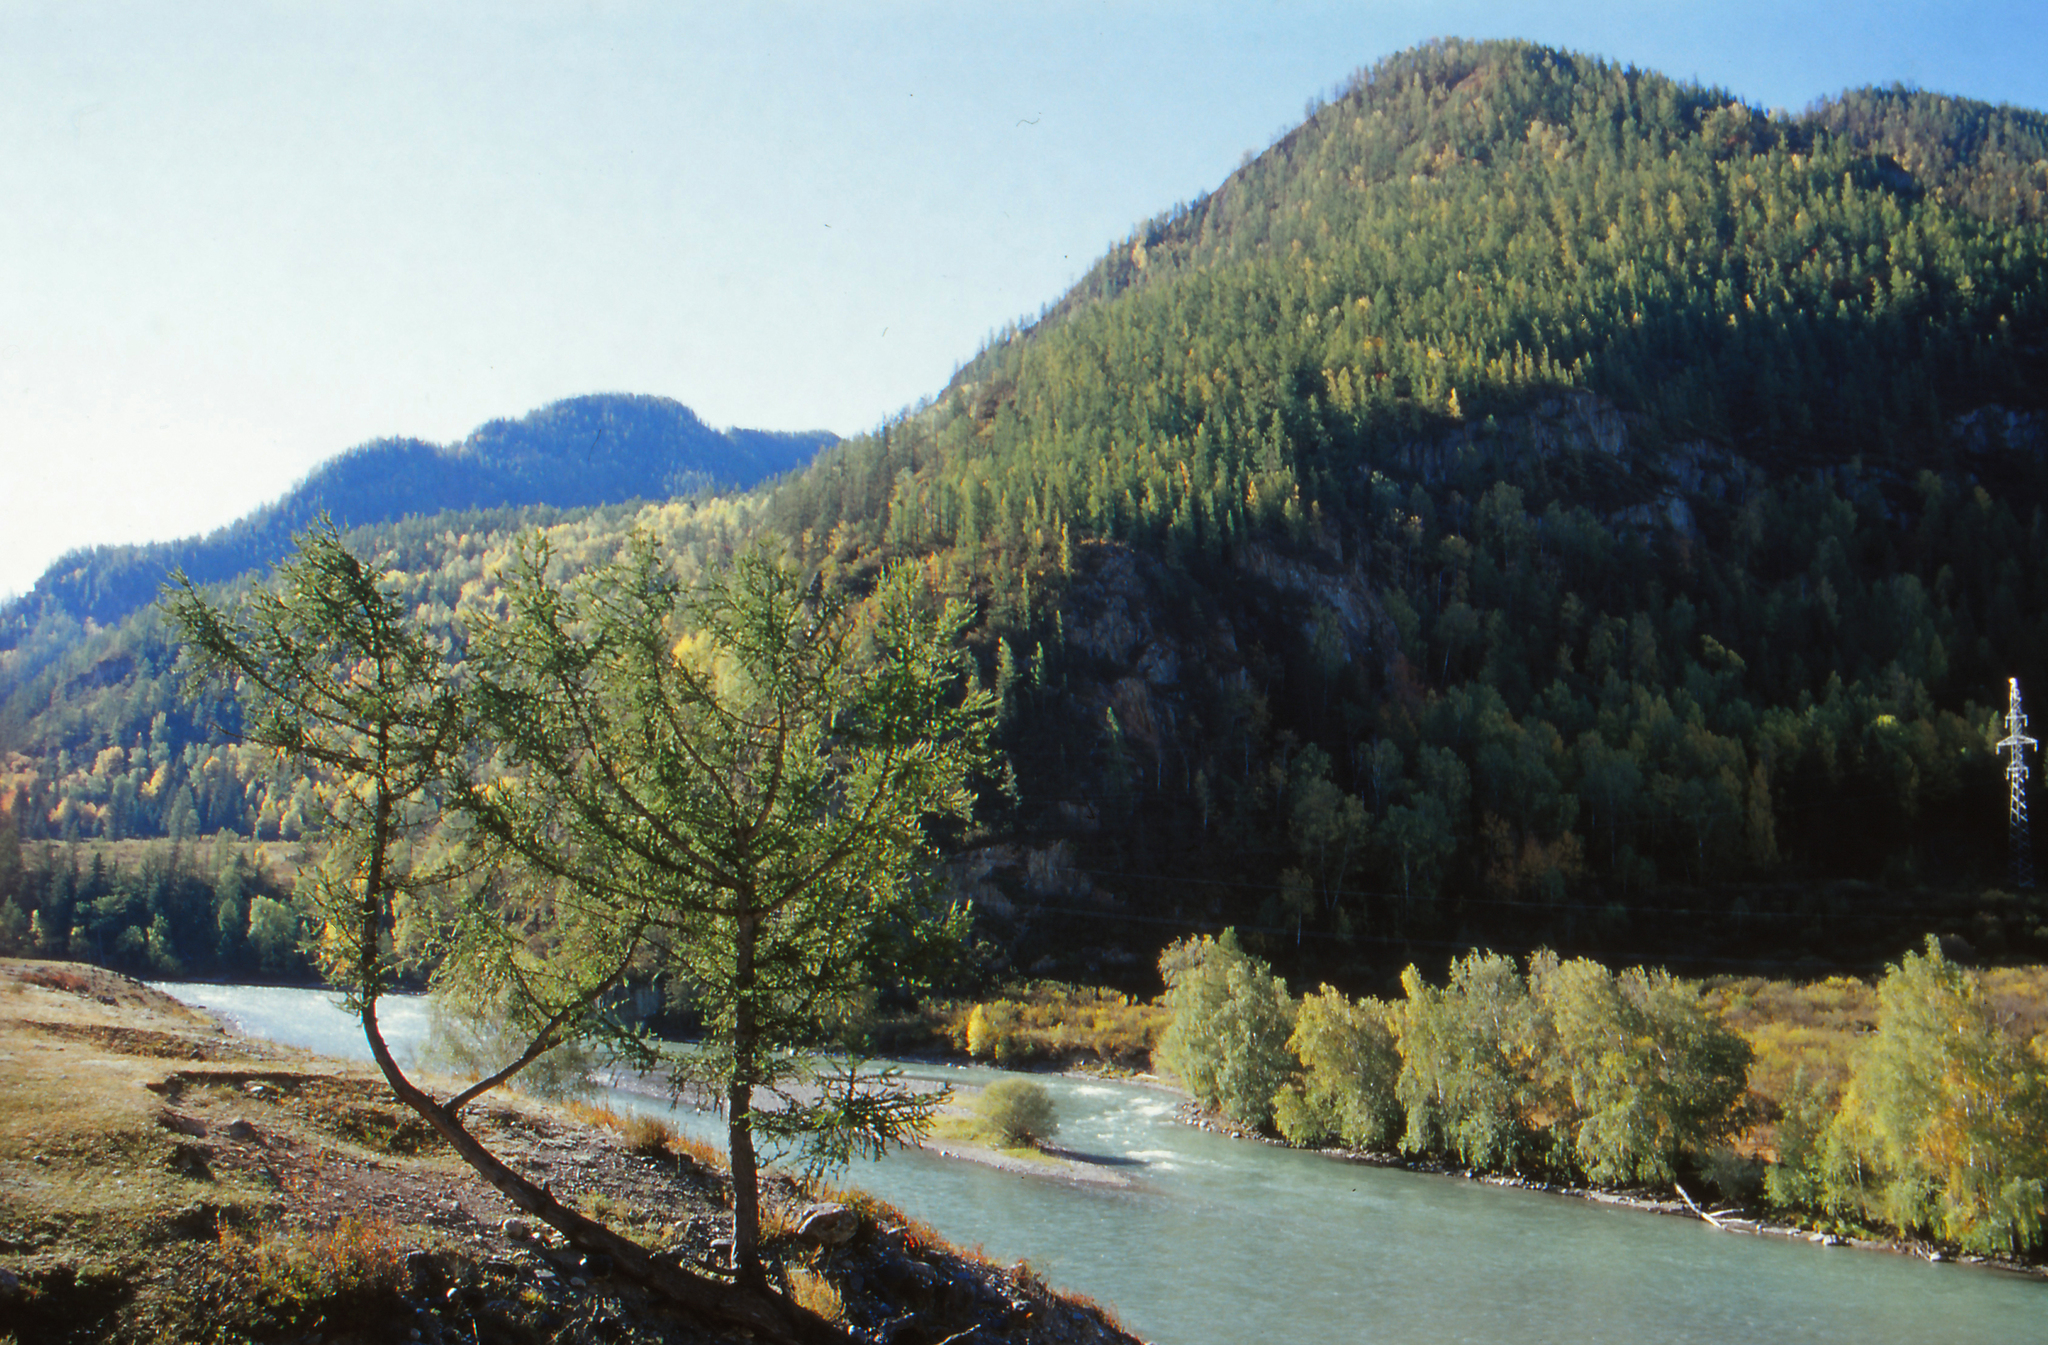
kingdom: Plantae
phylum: Tracheophyta
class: Pinopsida
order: Pinales
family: Pinaceae
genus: Larix
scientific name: Larix sibirica
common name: Siberian larch
